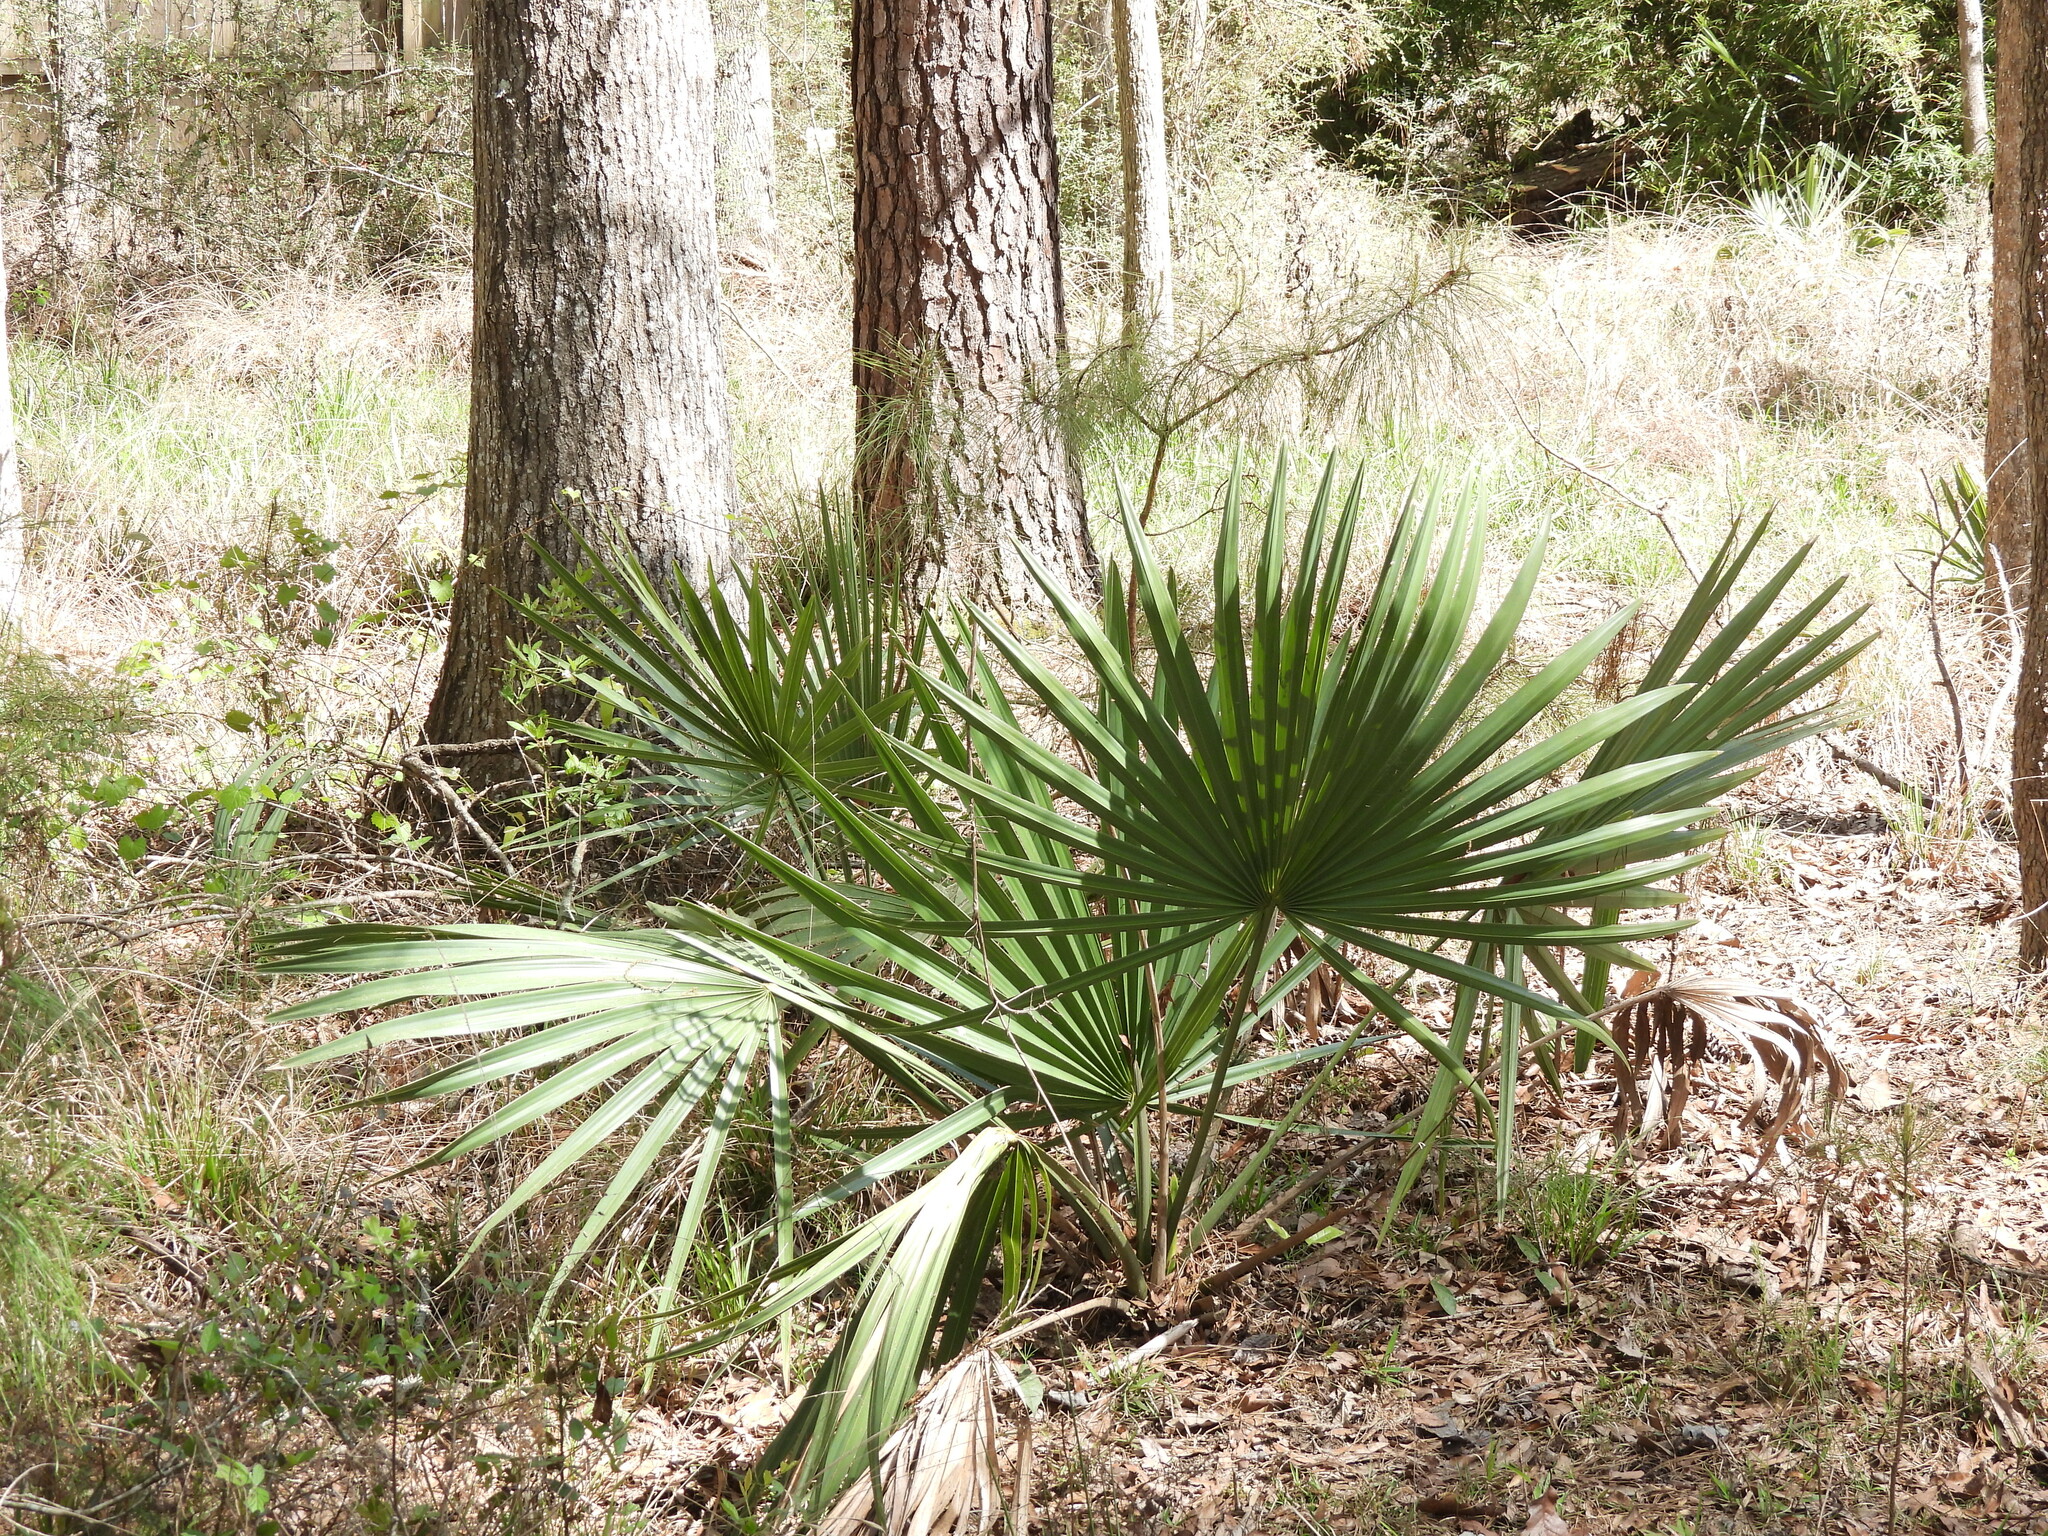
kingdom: Plantae
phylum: Tracheophyta
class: Liliopsida
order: Arecales
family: Arecaceae
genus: Sabal
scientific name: Sabal minor
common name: Dwarf palmetto
